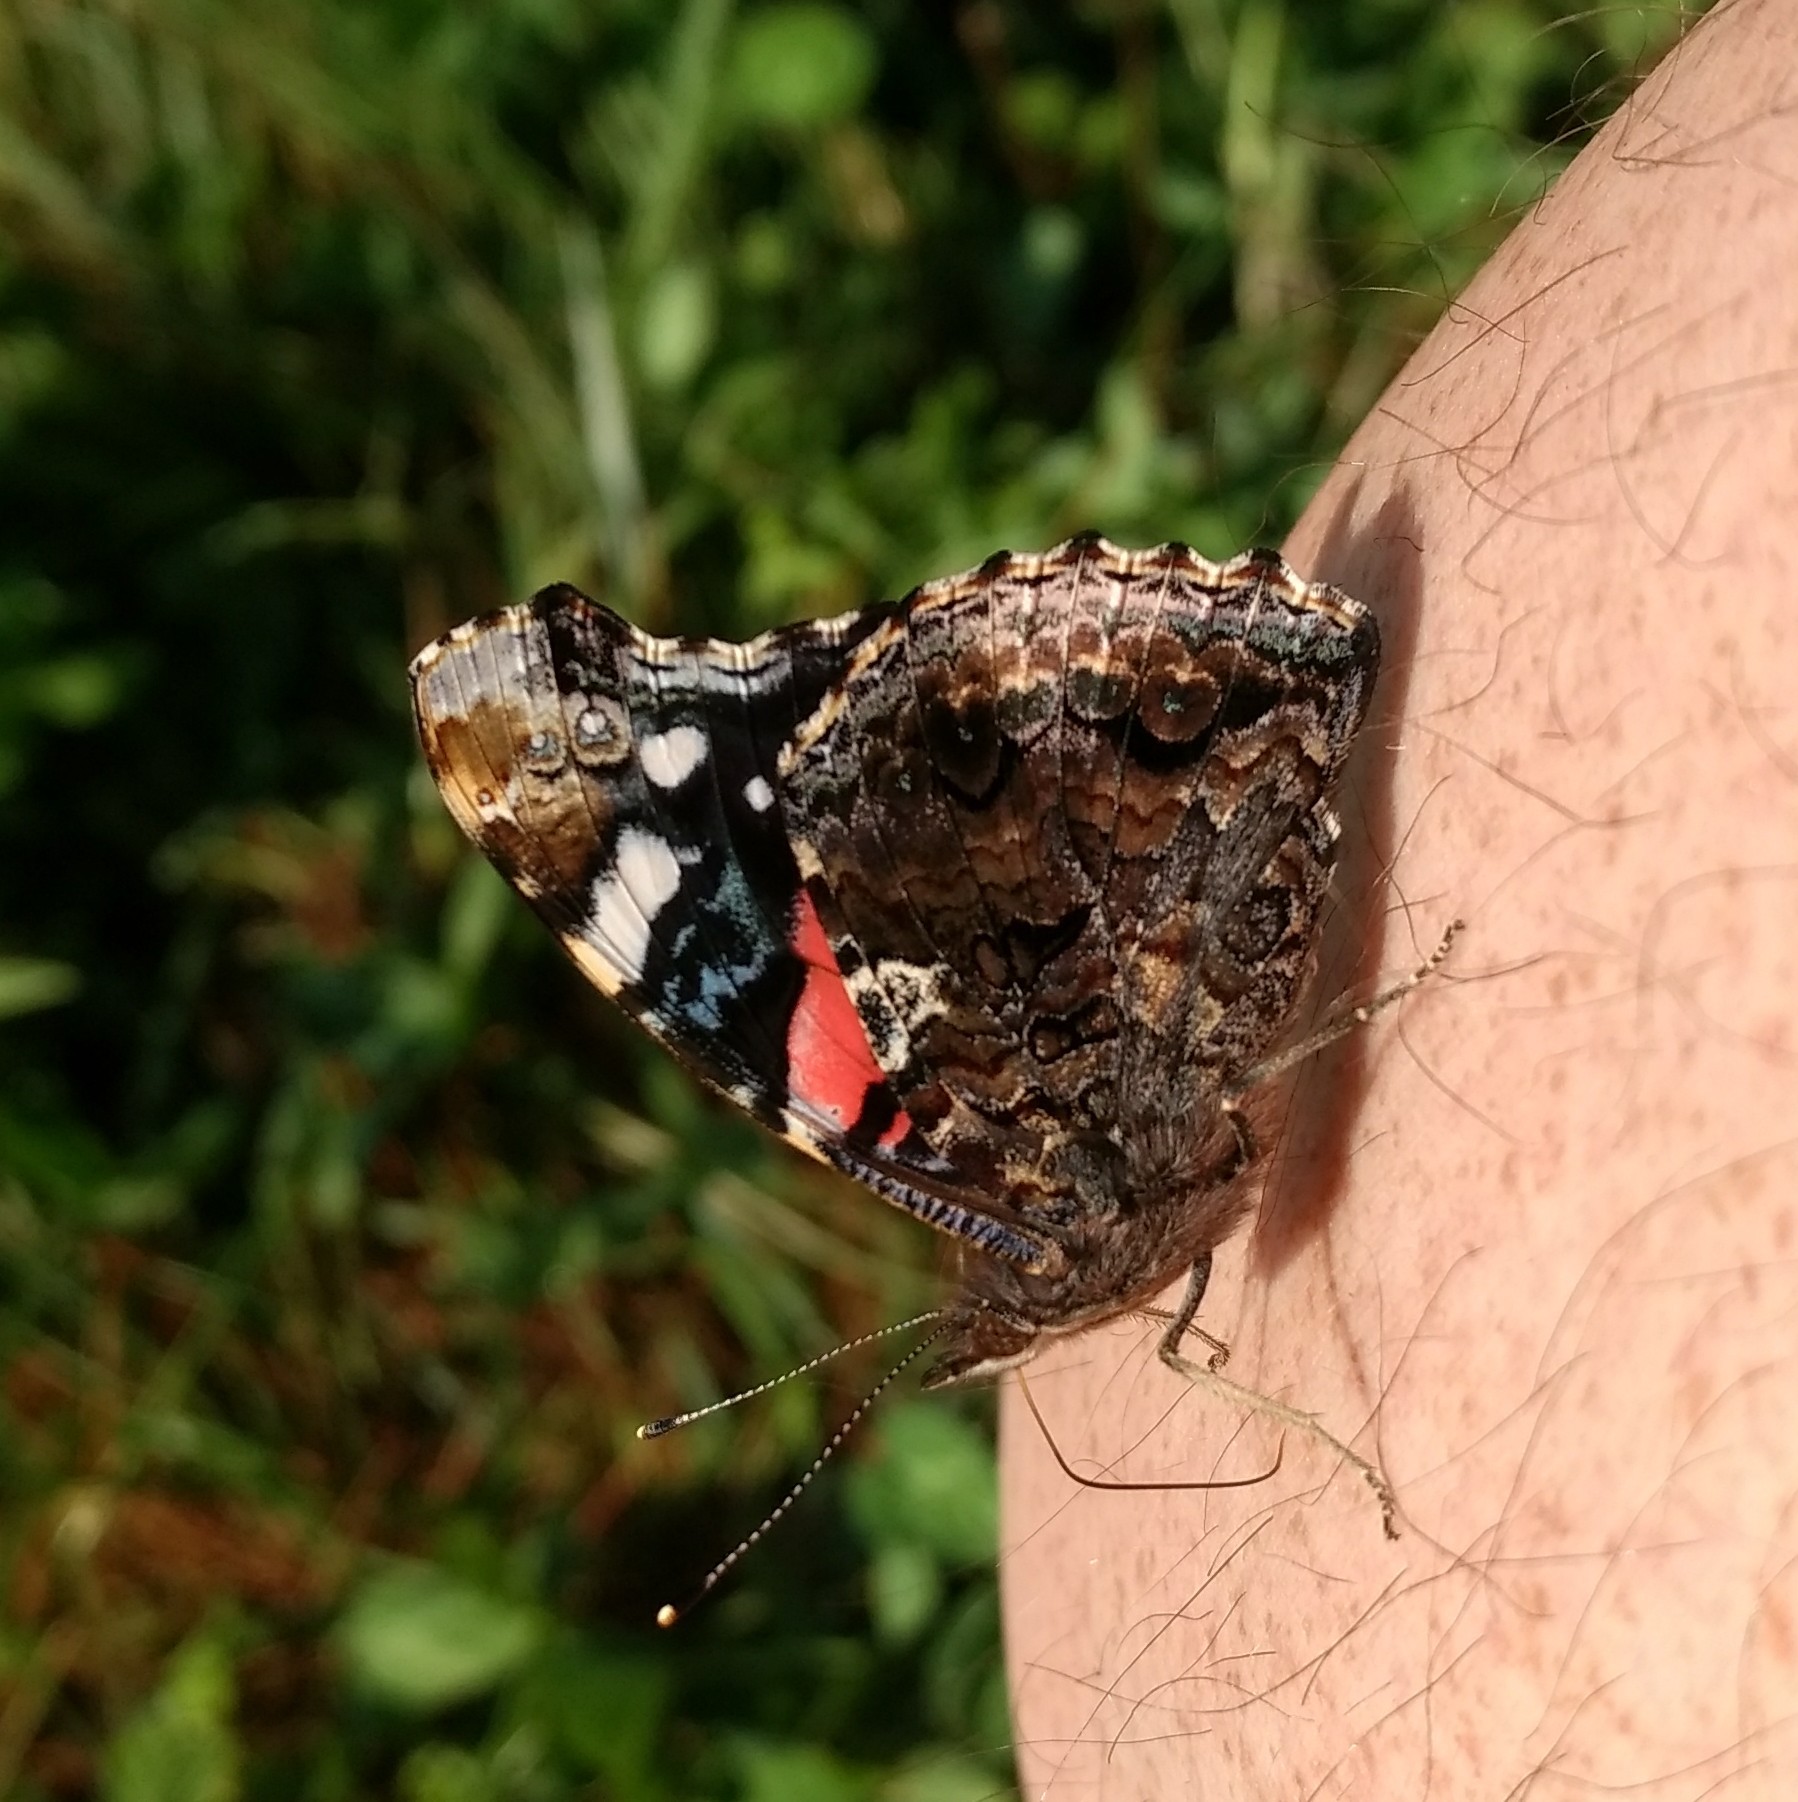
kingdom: Animalia
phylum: Arthropoda
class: Insecta
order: Lepidoptera
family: Nymphalidae
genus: Vanessa
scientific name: Vanessa atalanta
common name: Red admiral
